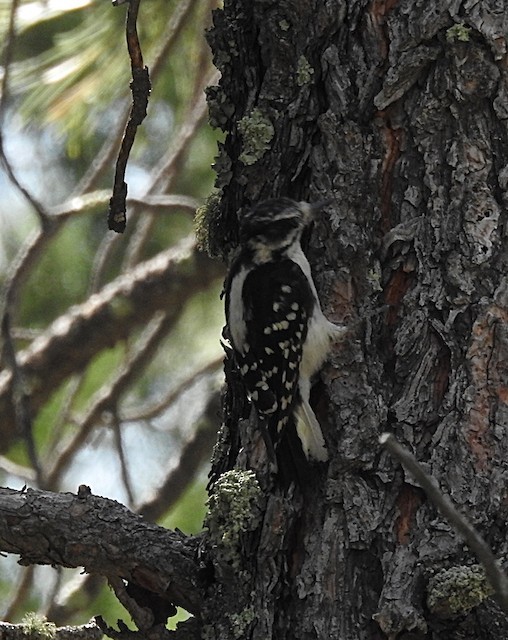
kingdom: Animalia
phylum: Chordata
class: Aves
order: Piciformes
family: Picidae
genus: Leuconotopicus
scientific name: Leuconotopicus villosus
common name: Hairy woodpecker
